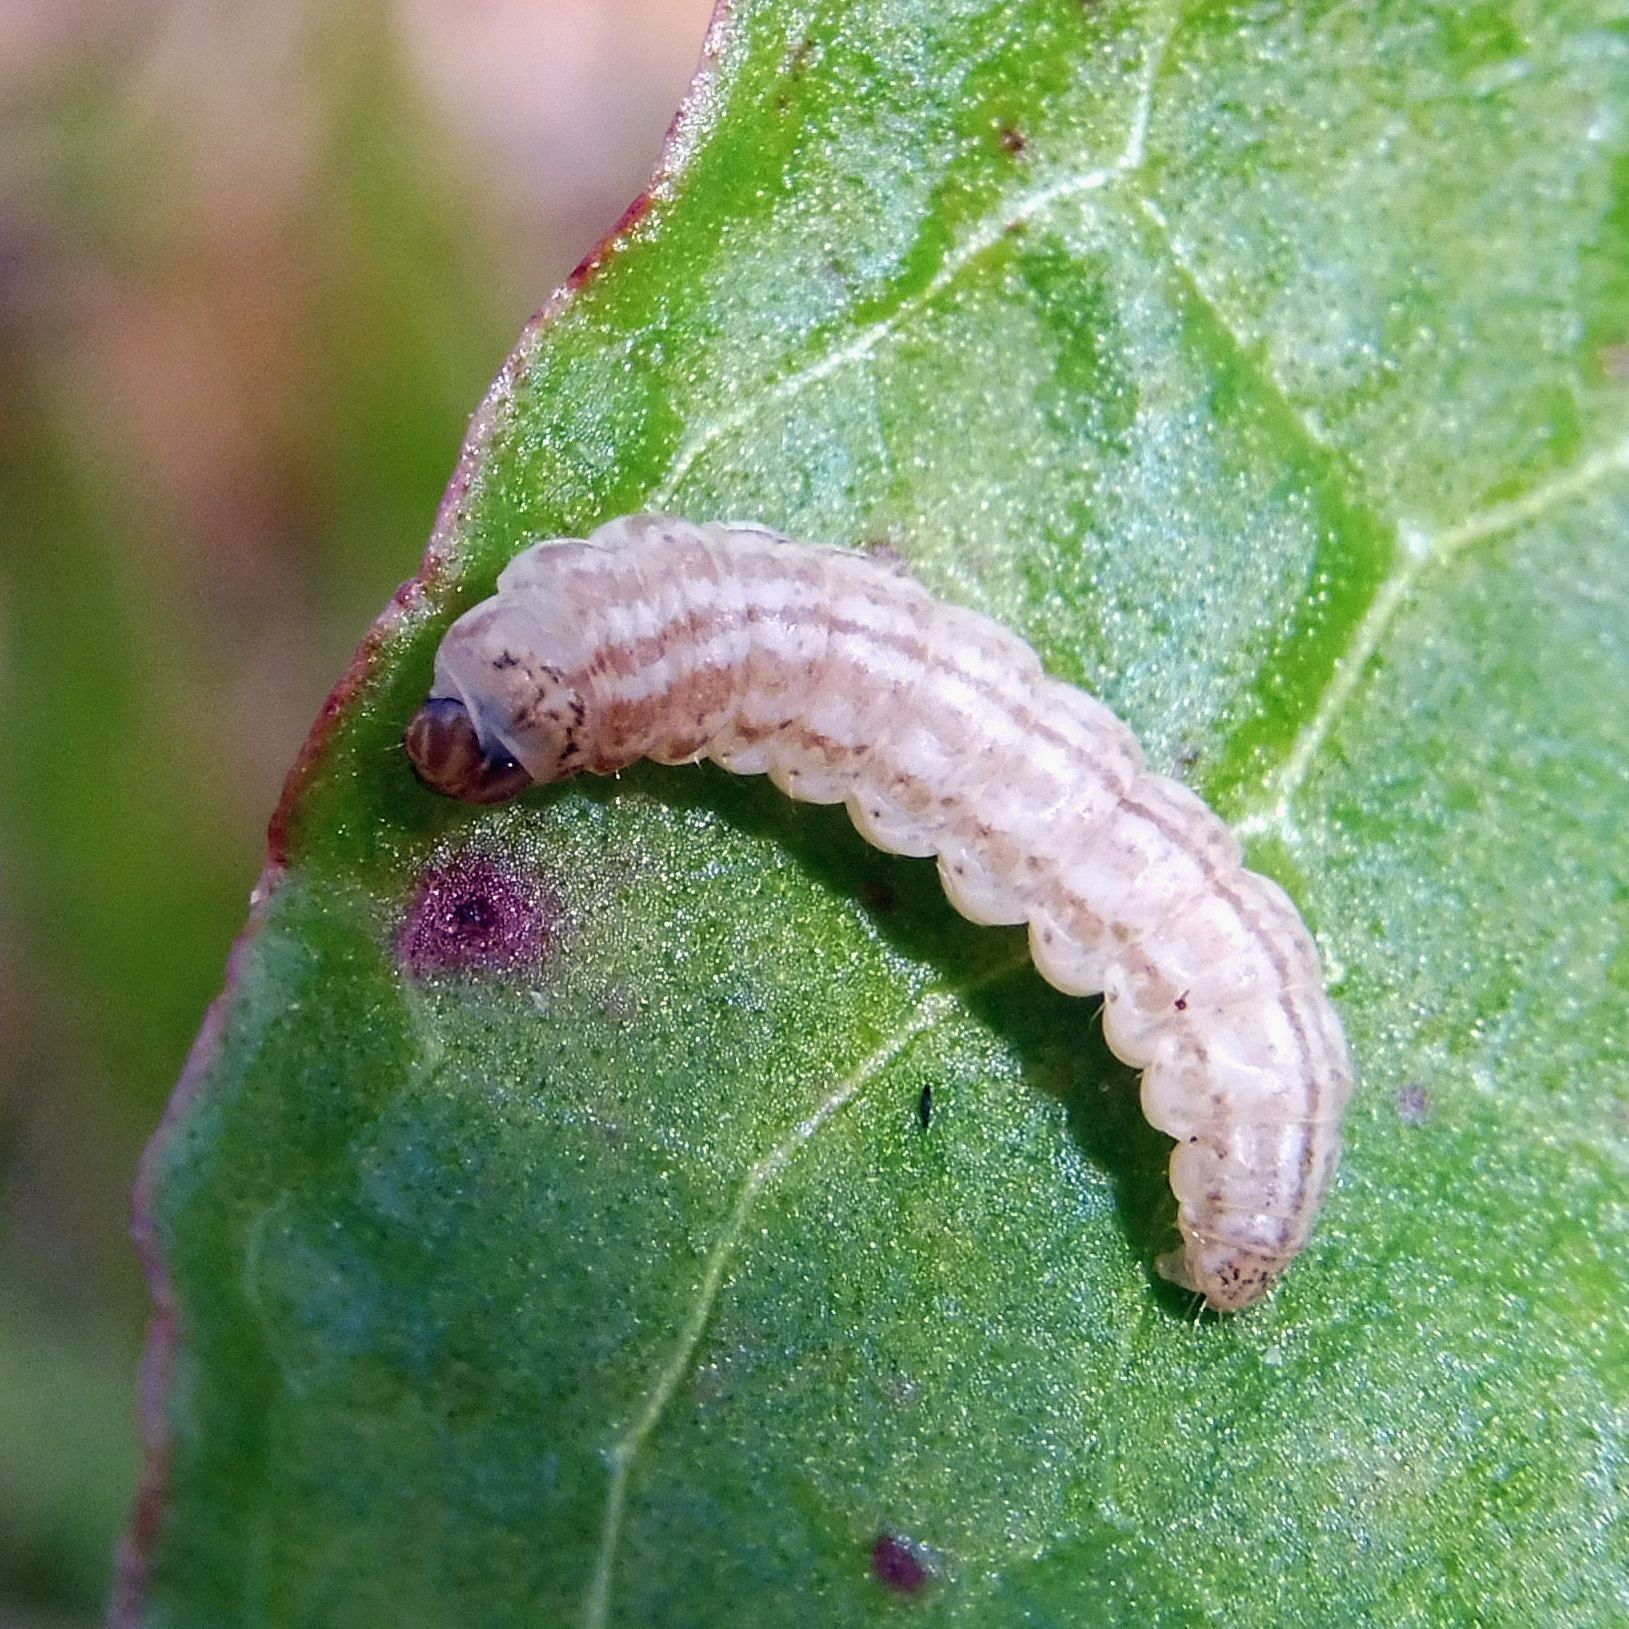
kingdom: Animalia
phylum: Arthropoda
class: Insecta
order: Lepidoptera
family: Cosmopterigidae
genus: Limnaecia
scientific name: Limnaecia phragmitella
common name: Bulrush cosmet
